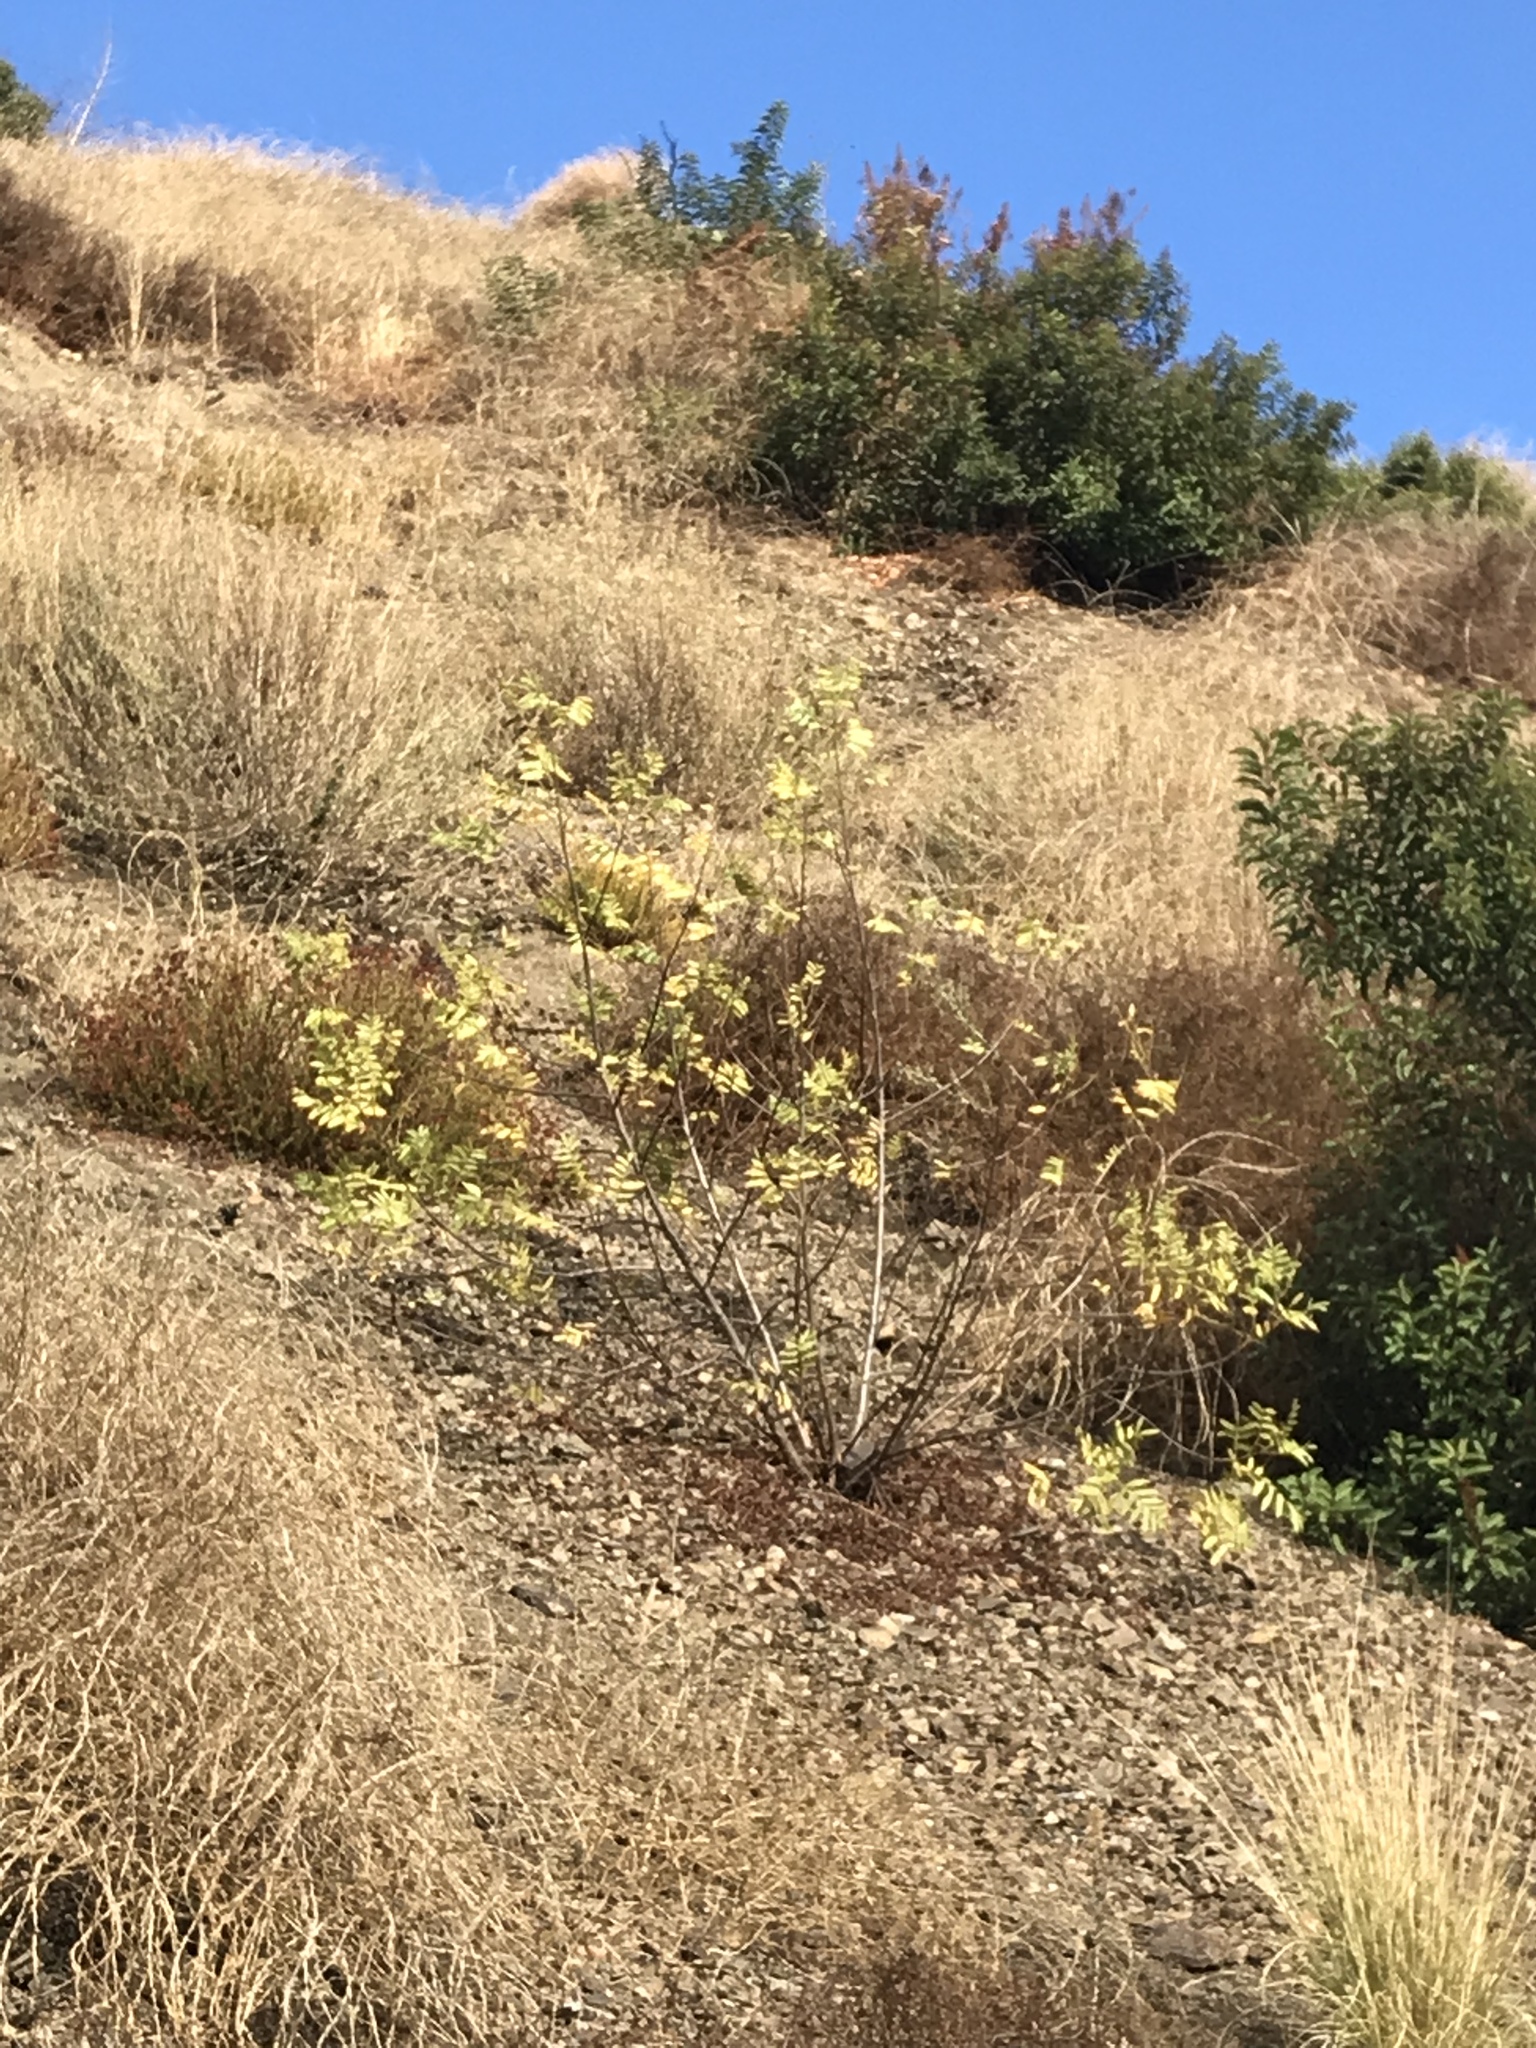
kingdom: Plantae
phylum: Tracheophyta
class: Magnoliopsida
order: Fagales
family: Juglandaceae
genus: Juglans
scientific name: Juglans californica
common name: Southern california black walnut
